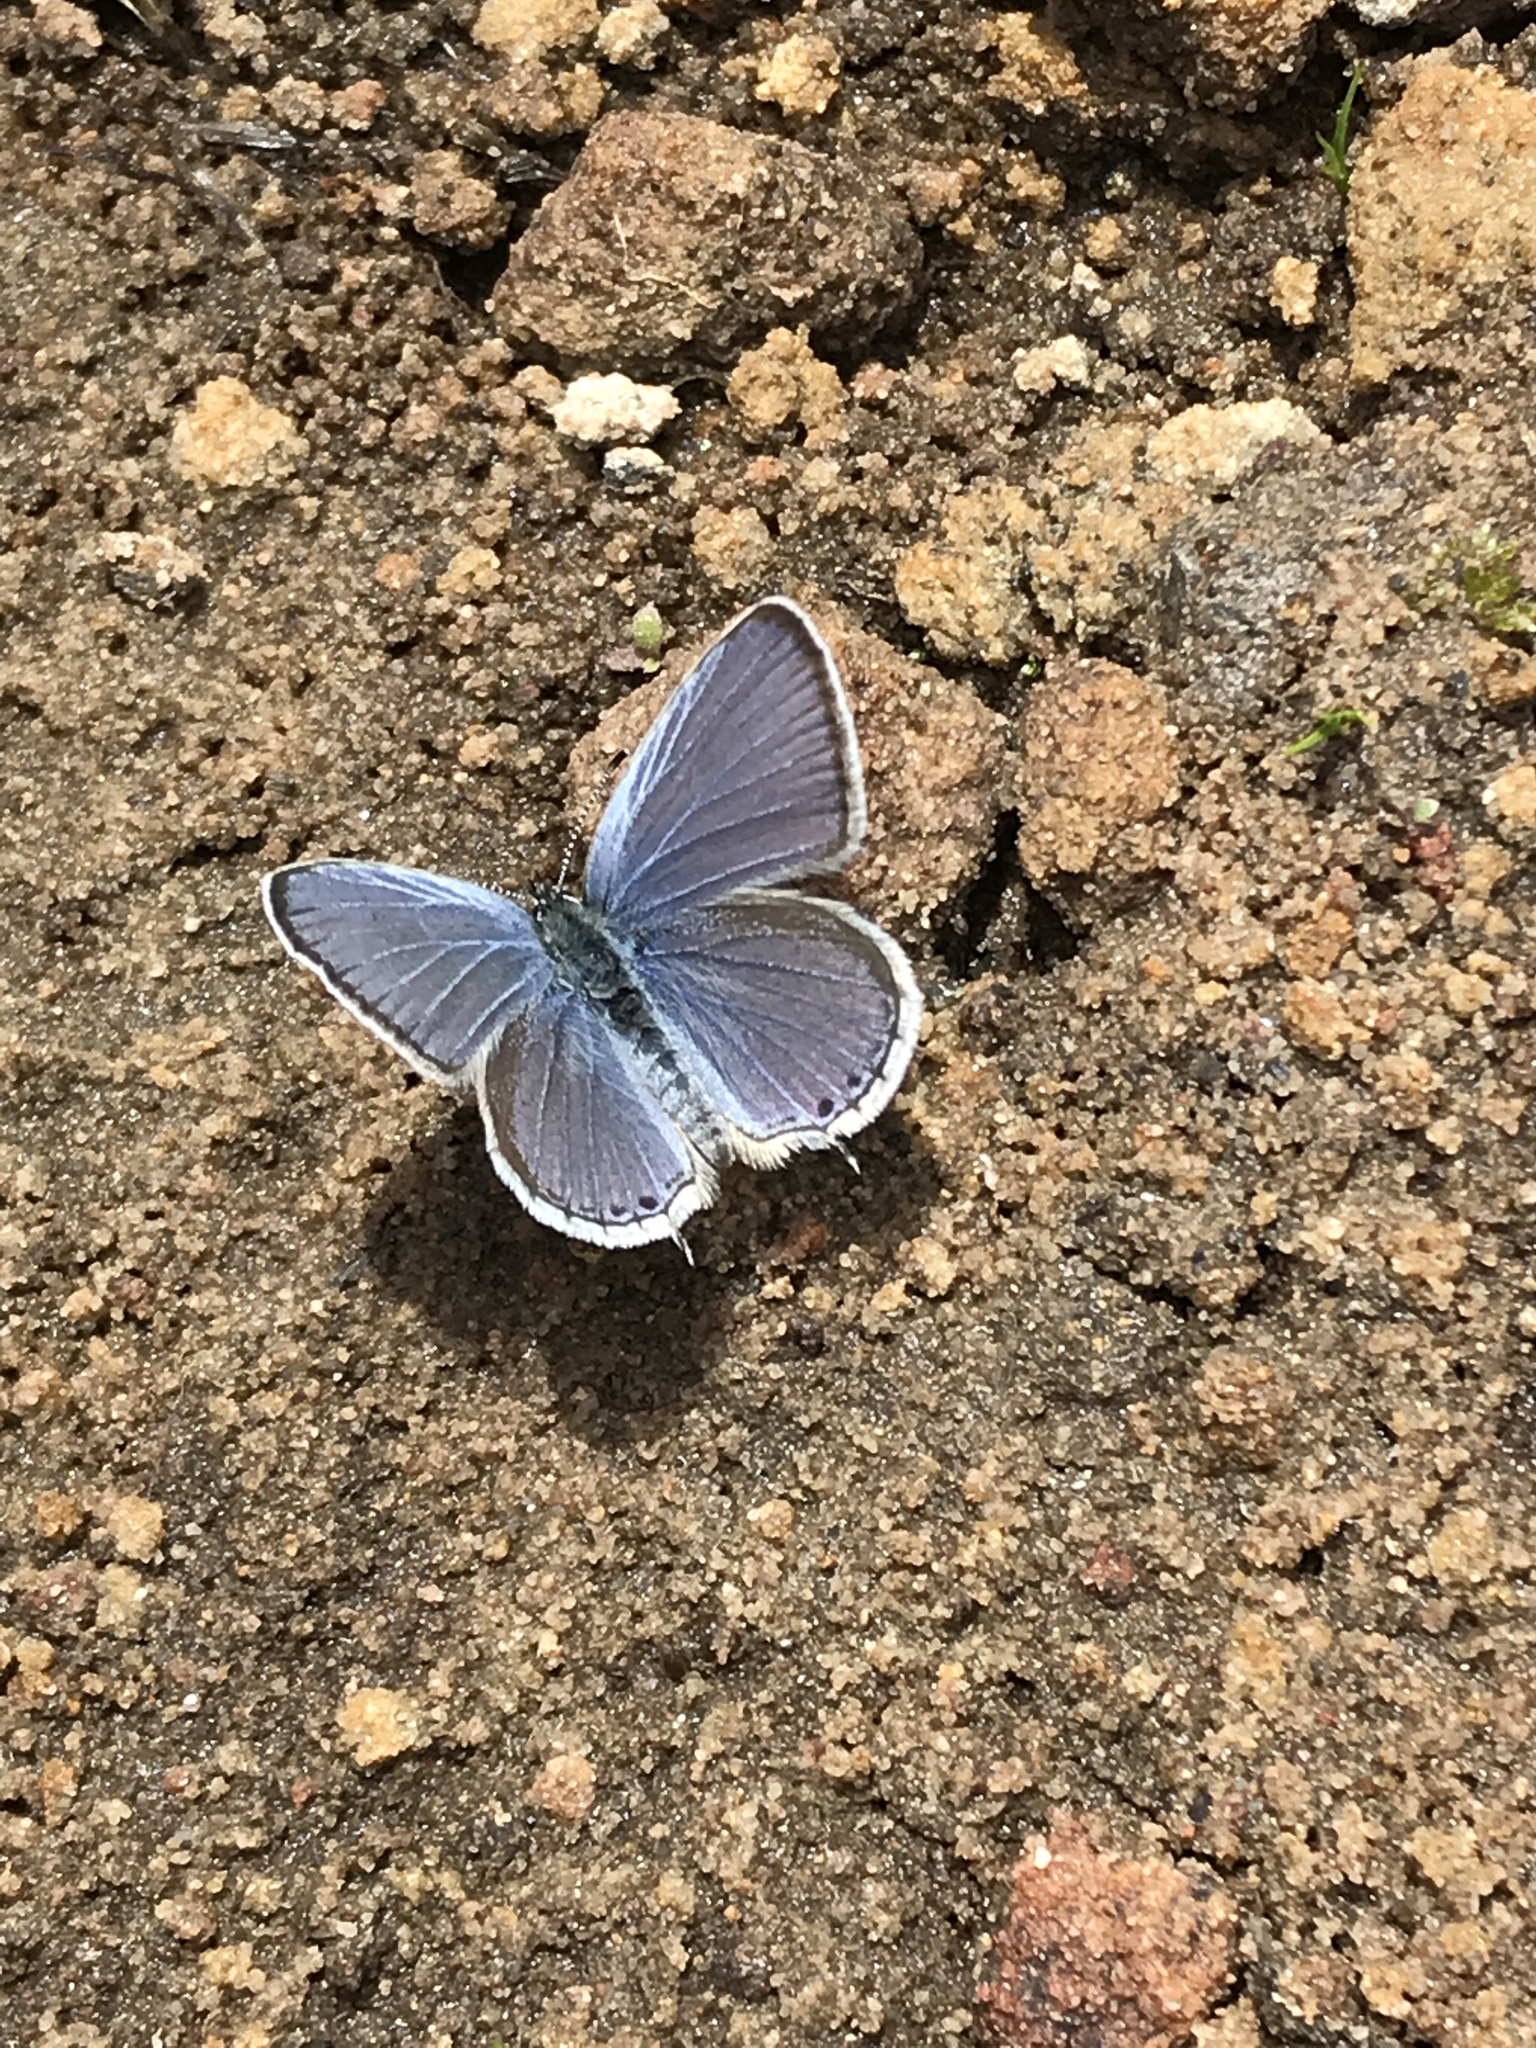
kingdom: Animalia
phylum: Arthropoda
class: Insecta
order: Lepidoptera
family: Lycaenidae
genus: Elkalyce
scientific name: Elkalyce amyntula
